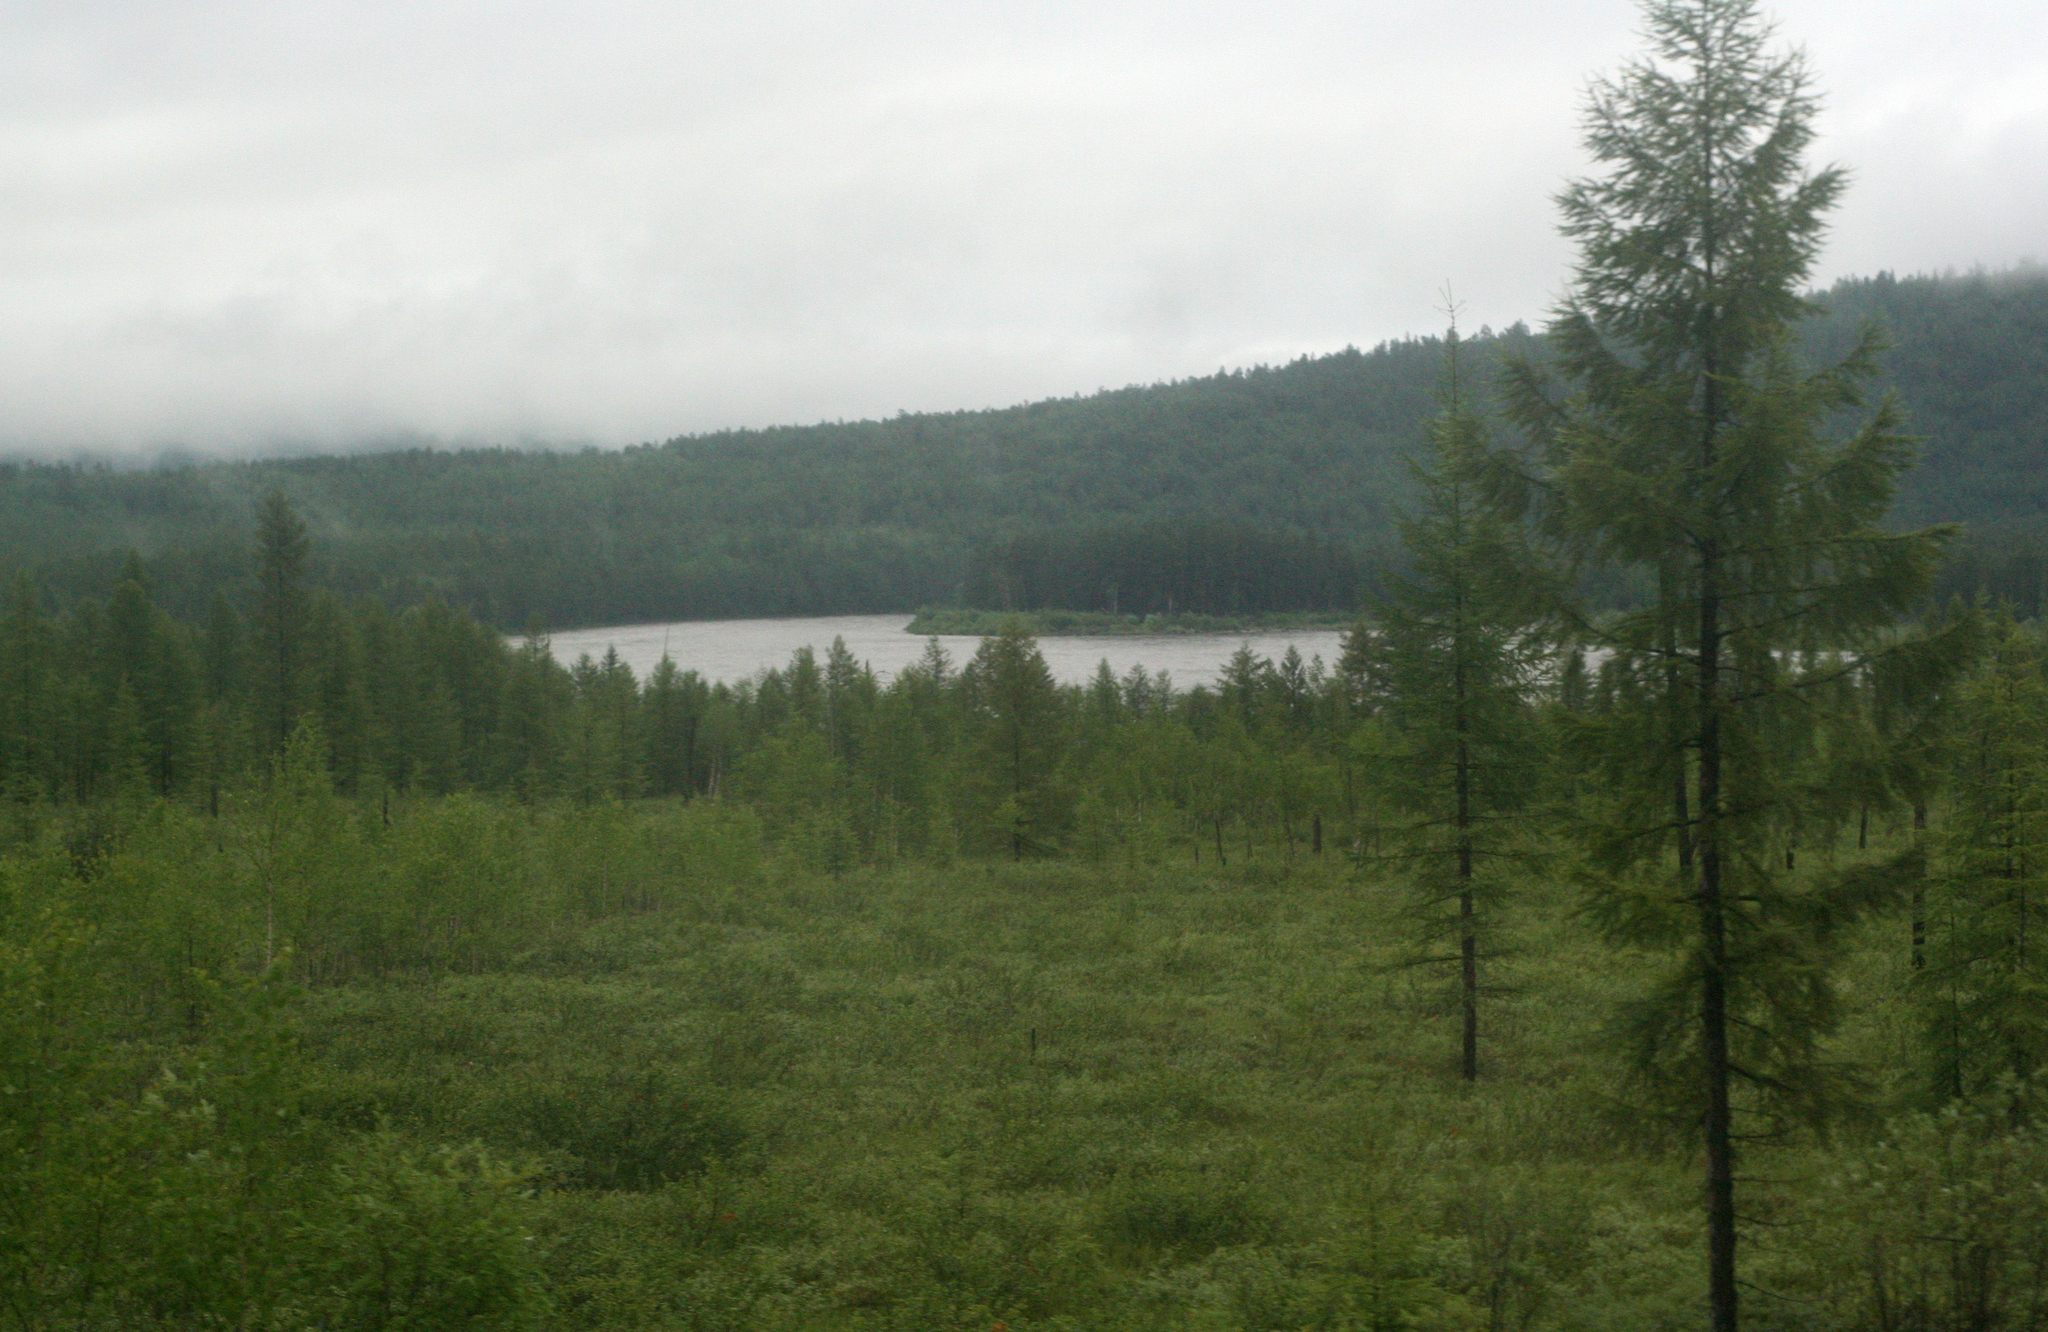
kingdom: Plantae
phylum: Tracheophyta
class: Pinopsida
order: Pinales
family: Pinaceae
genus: Larix
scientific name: Larix gmelinii
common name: Dahurian larch
